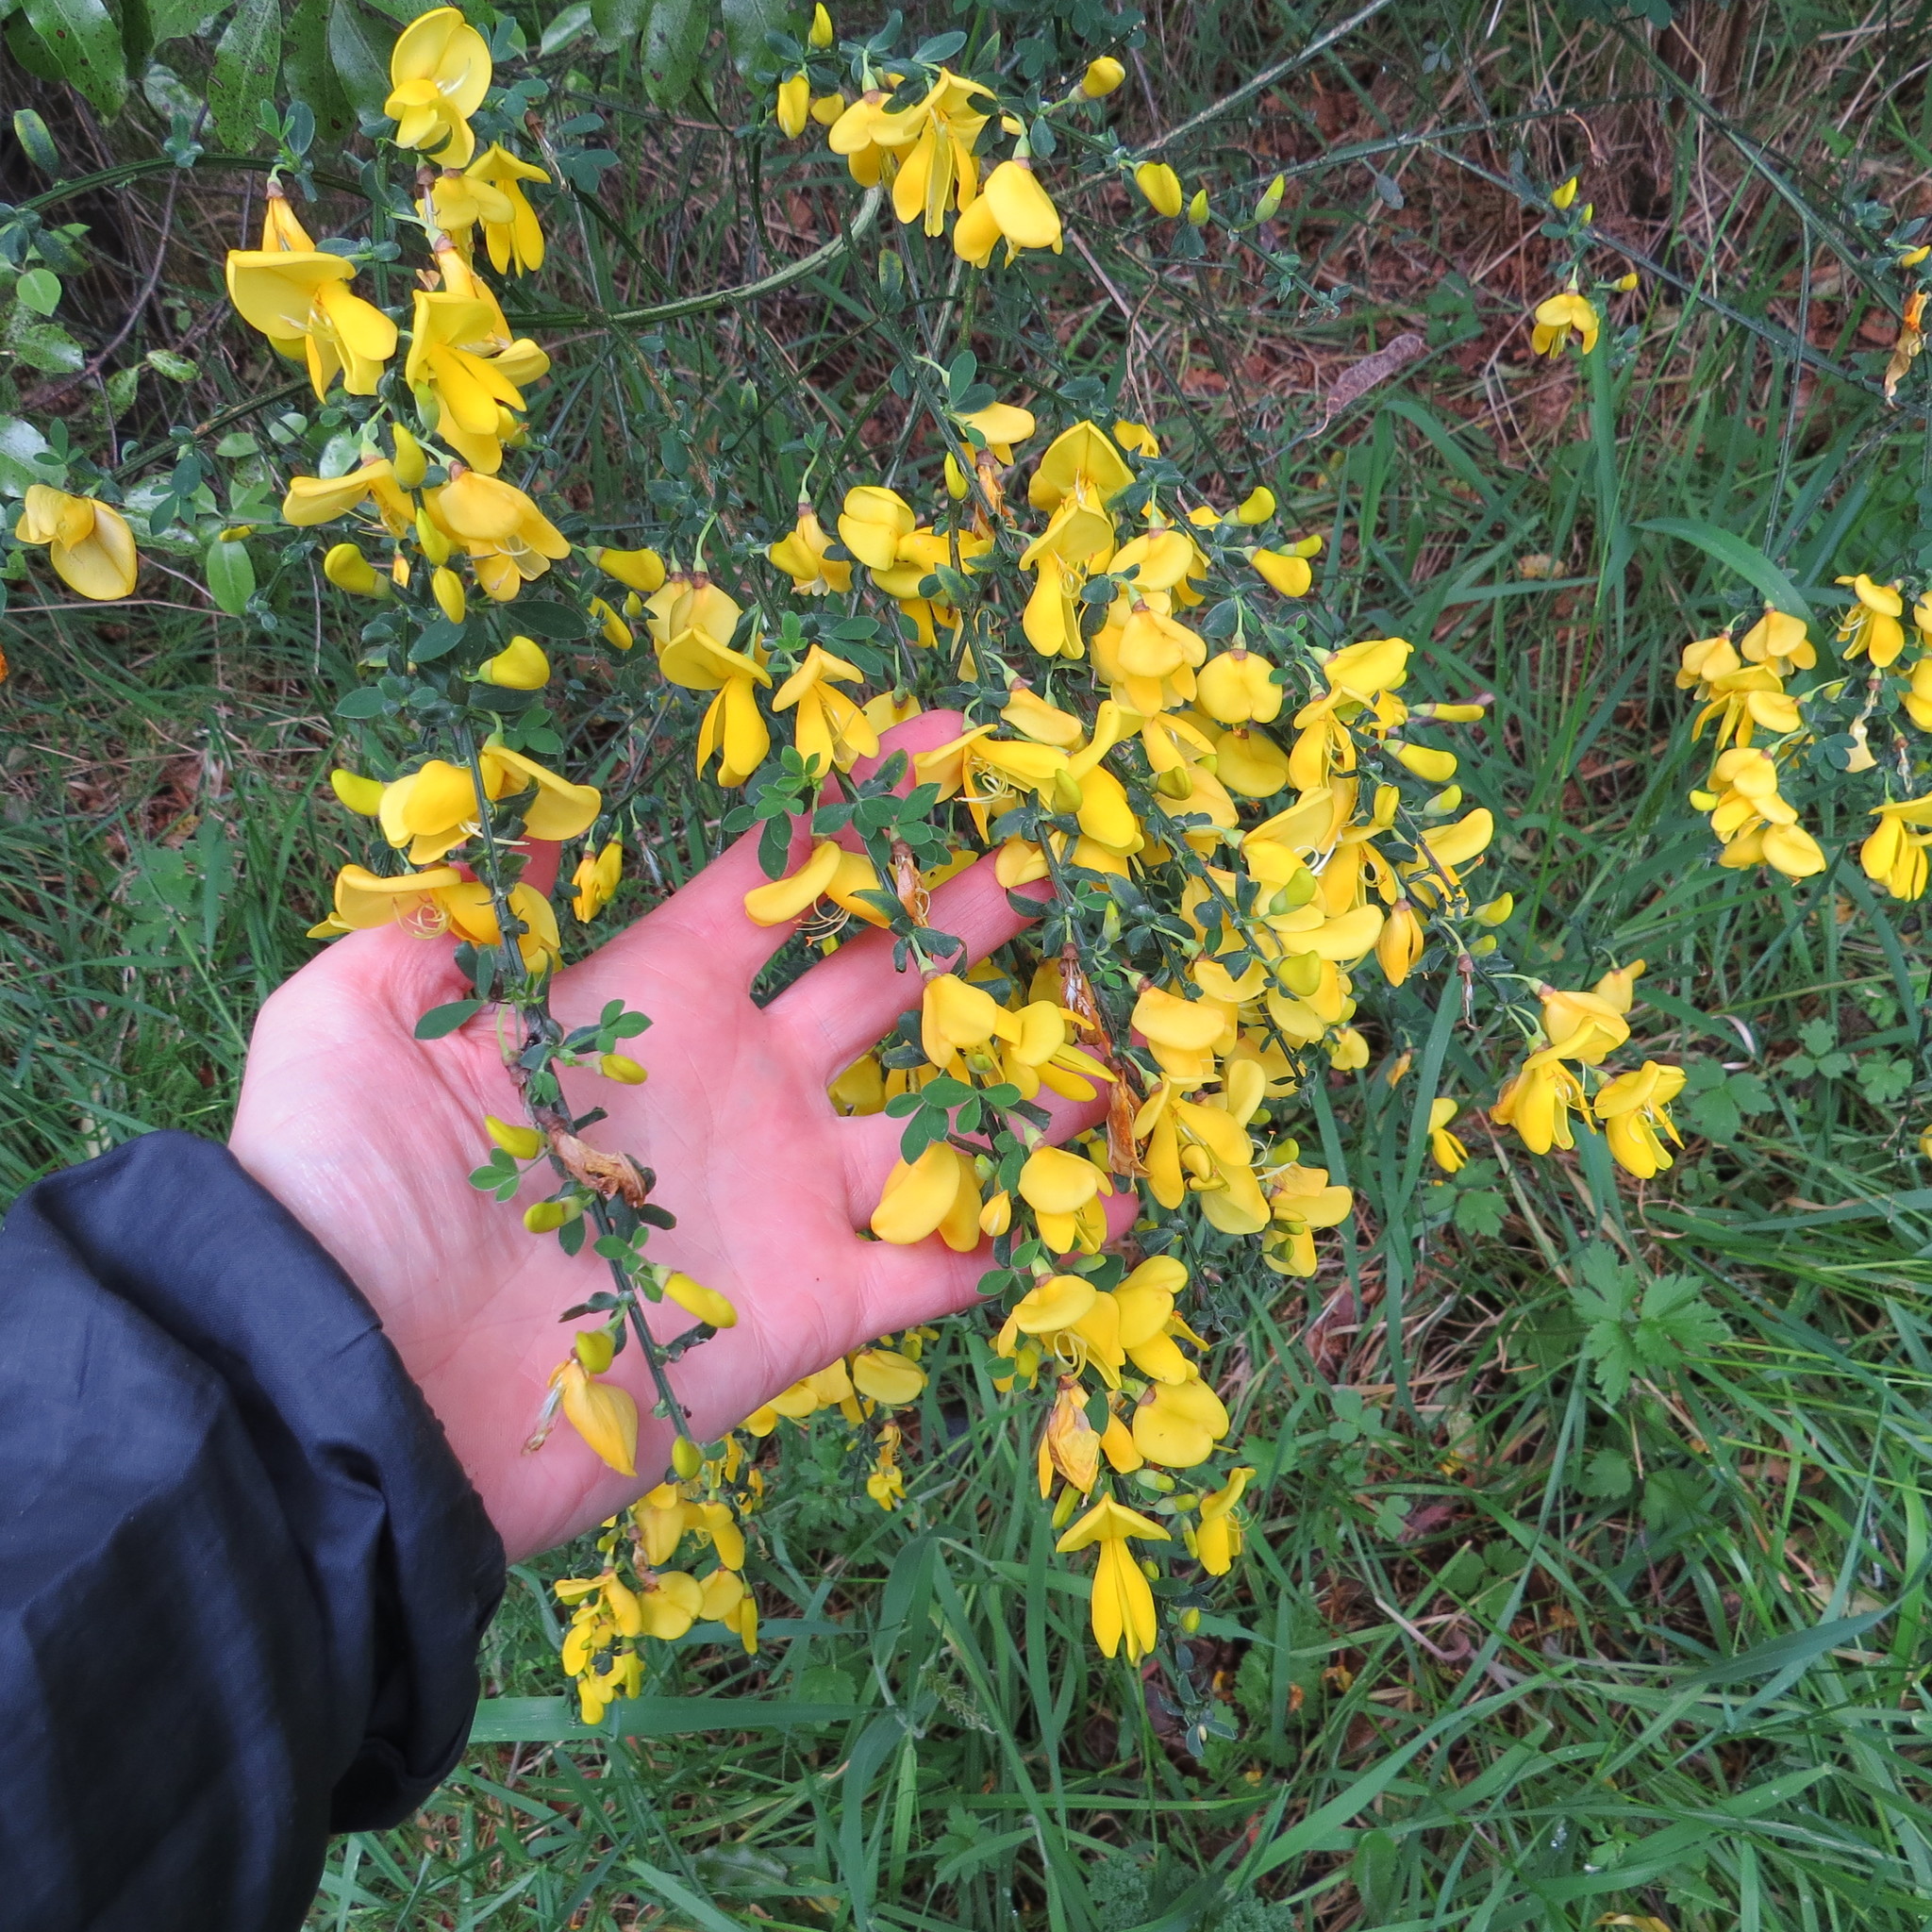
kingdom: Plantae
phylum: Tracheophyta
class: Magnoliopsida
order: Fabales
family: Fabaceae
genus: Cytisus
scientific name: Cytisus scoparius
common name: Scotch broom
